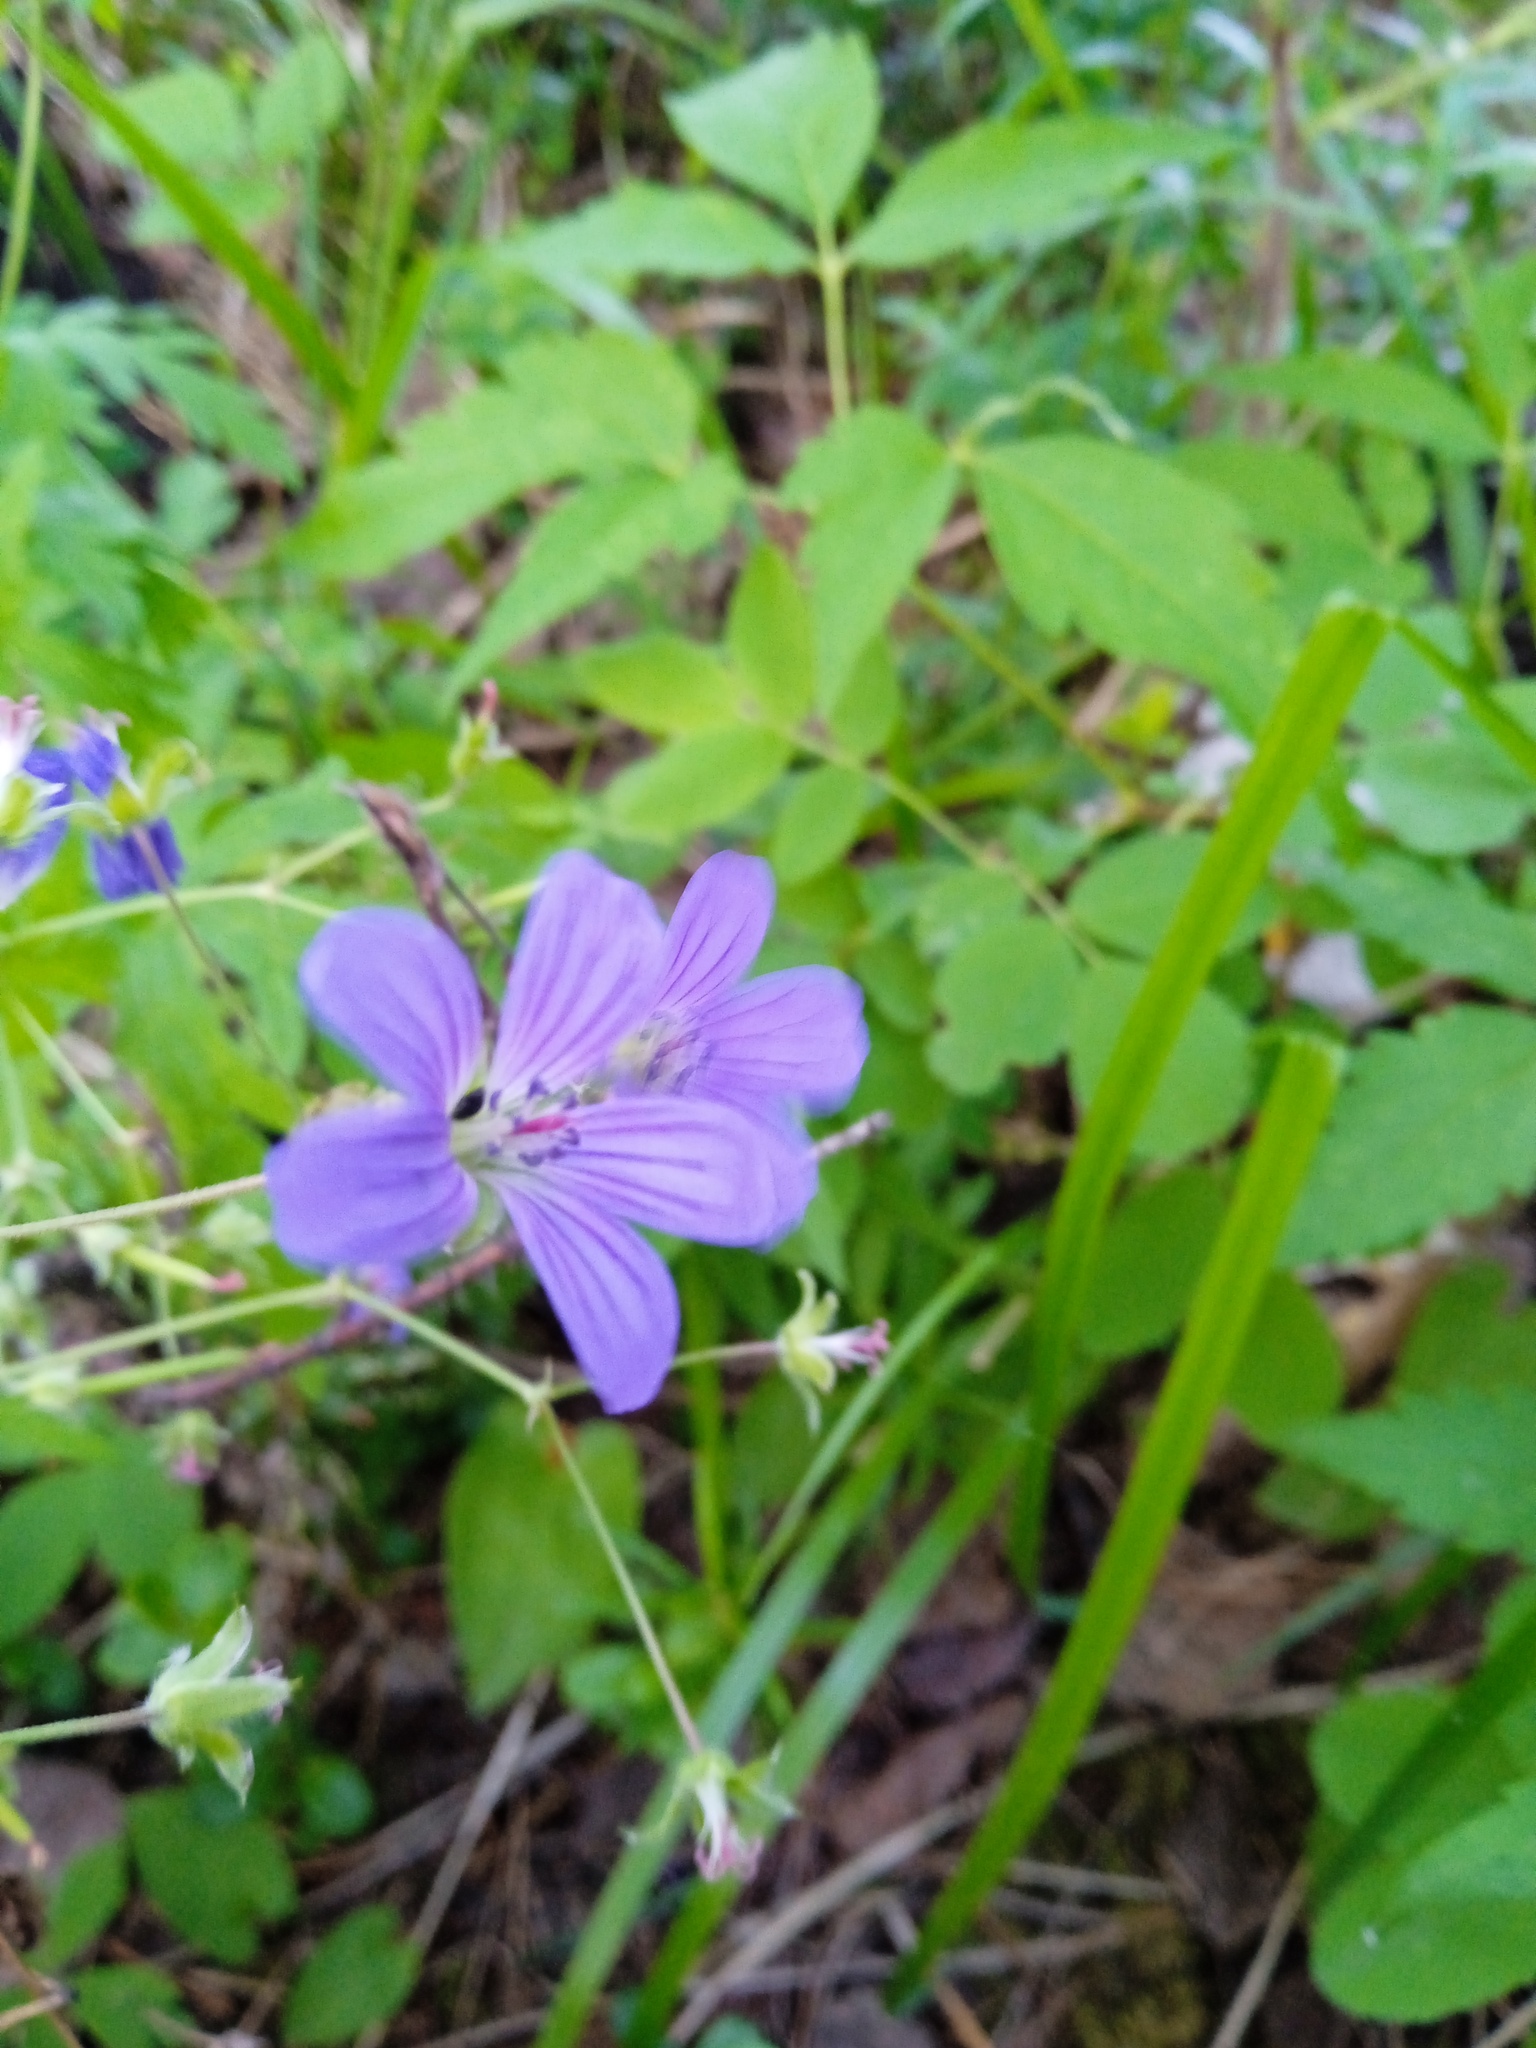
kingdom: Plantae
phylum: Tracheophyta
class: Magnoliopsida
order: Geraniales
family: Geraniaceae
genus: Geranium
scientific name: Geranium pseudosibiricum
